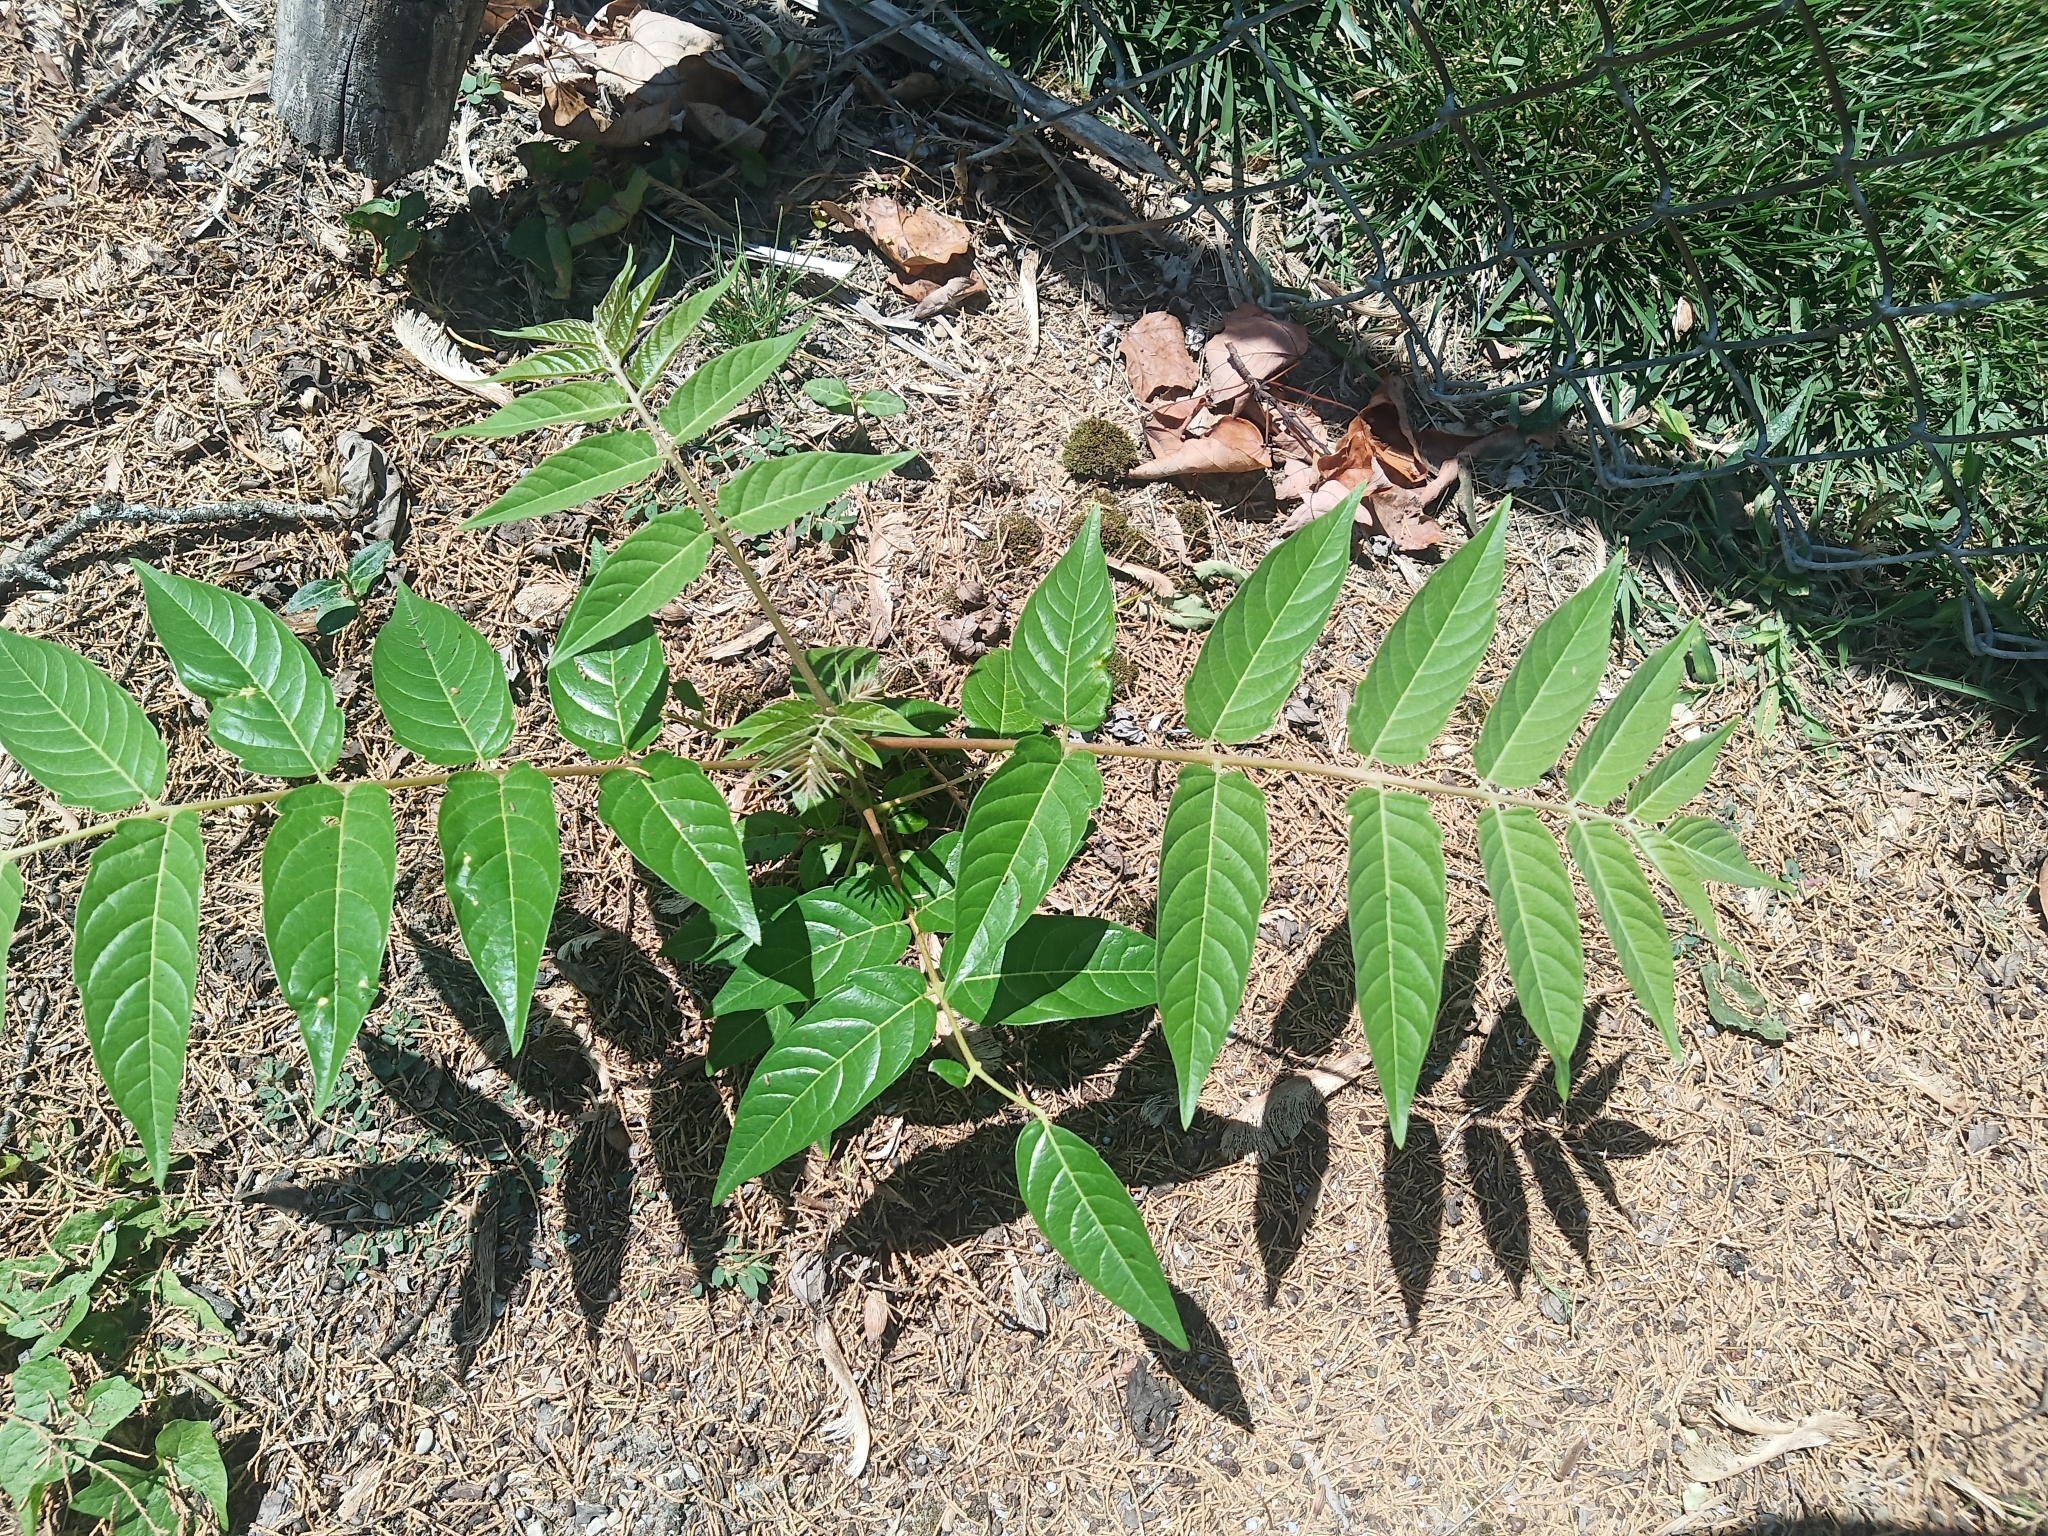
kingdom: Plantae
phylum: Tracheophyta
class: Magnoliopsida
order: Sapindales
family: Simaroubaceae
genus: Ailanthus
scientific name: Ailanthus altissima
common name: Tree-of-heaven
